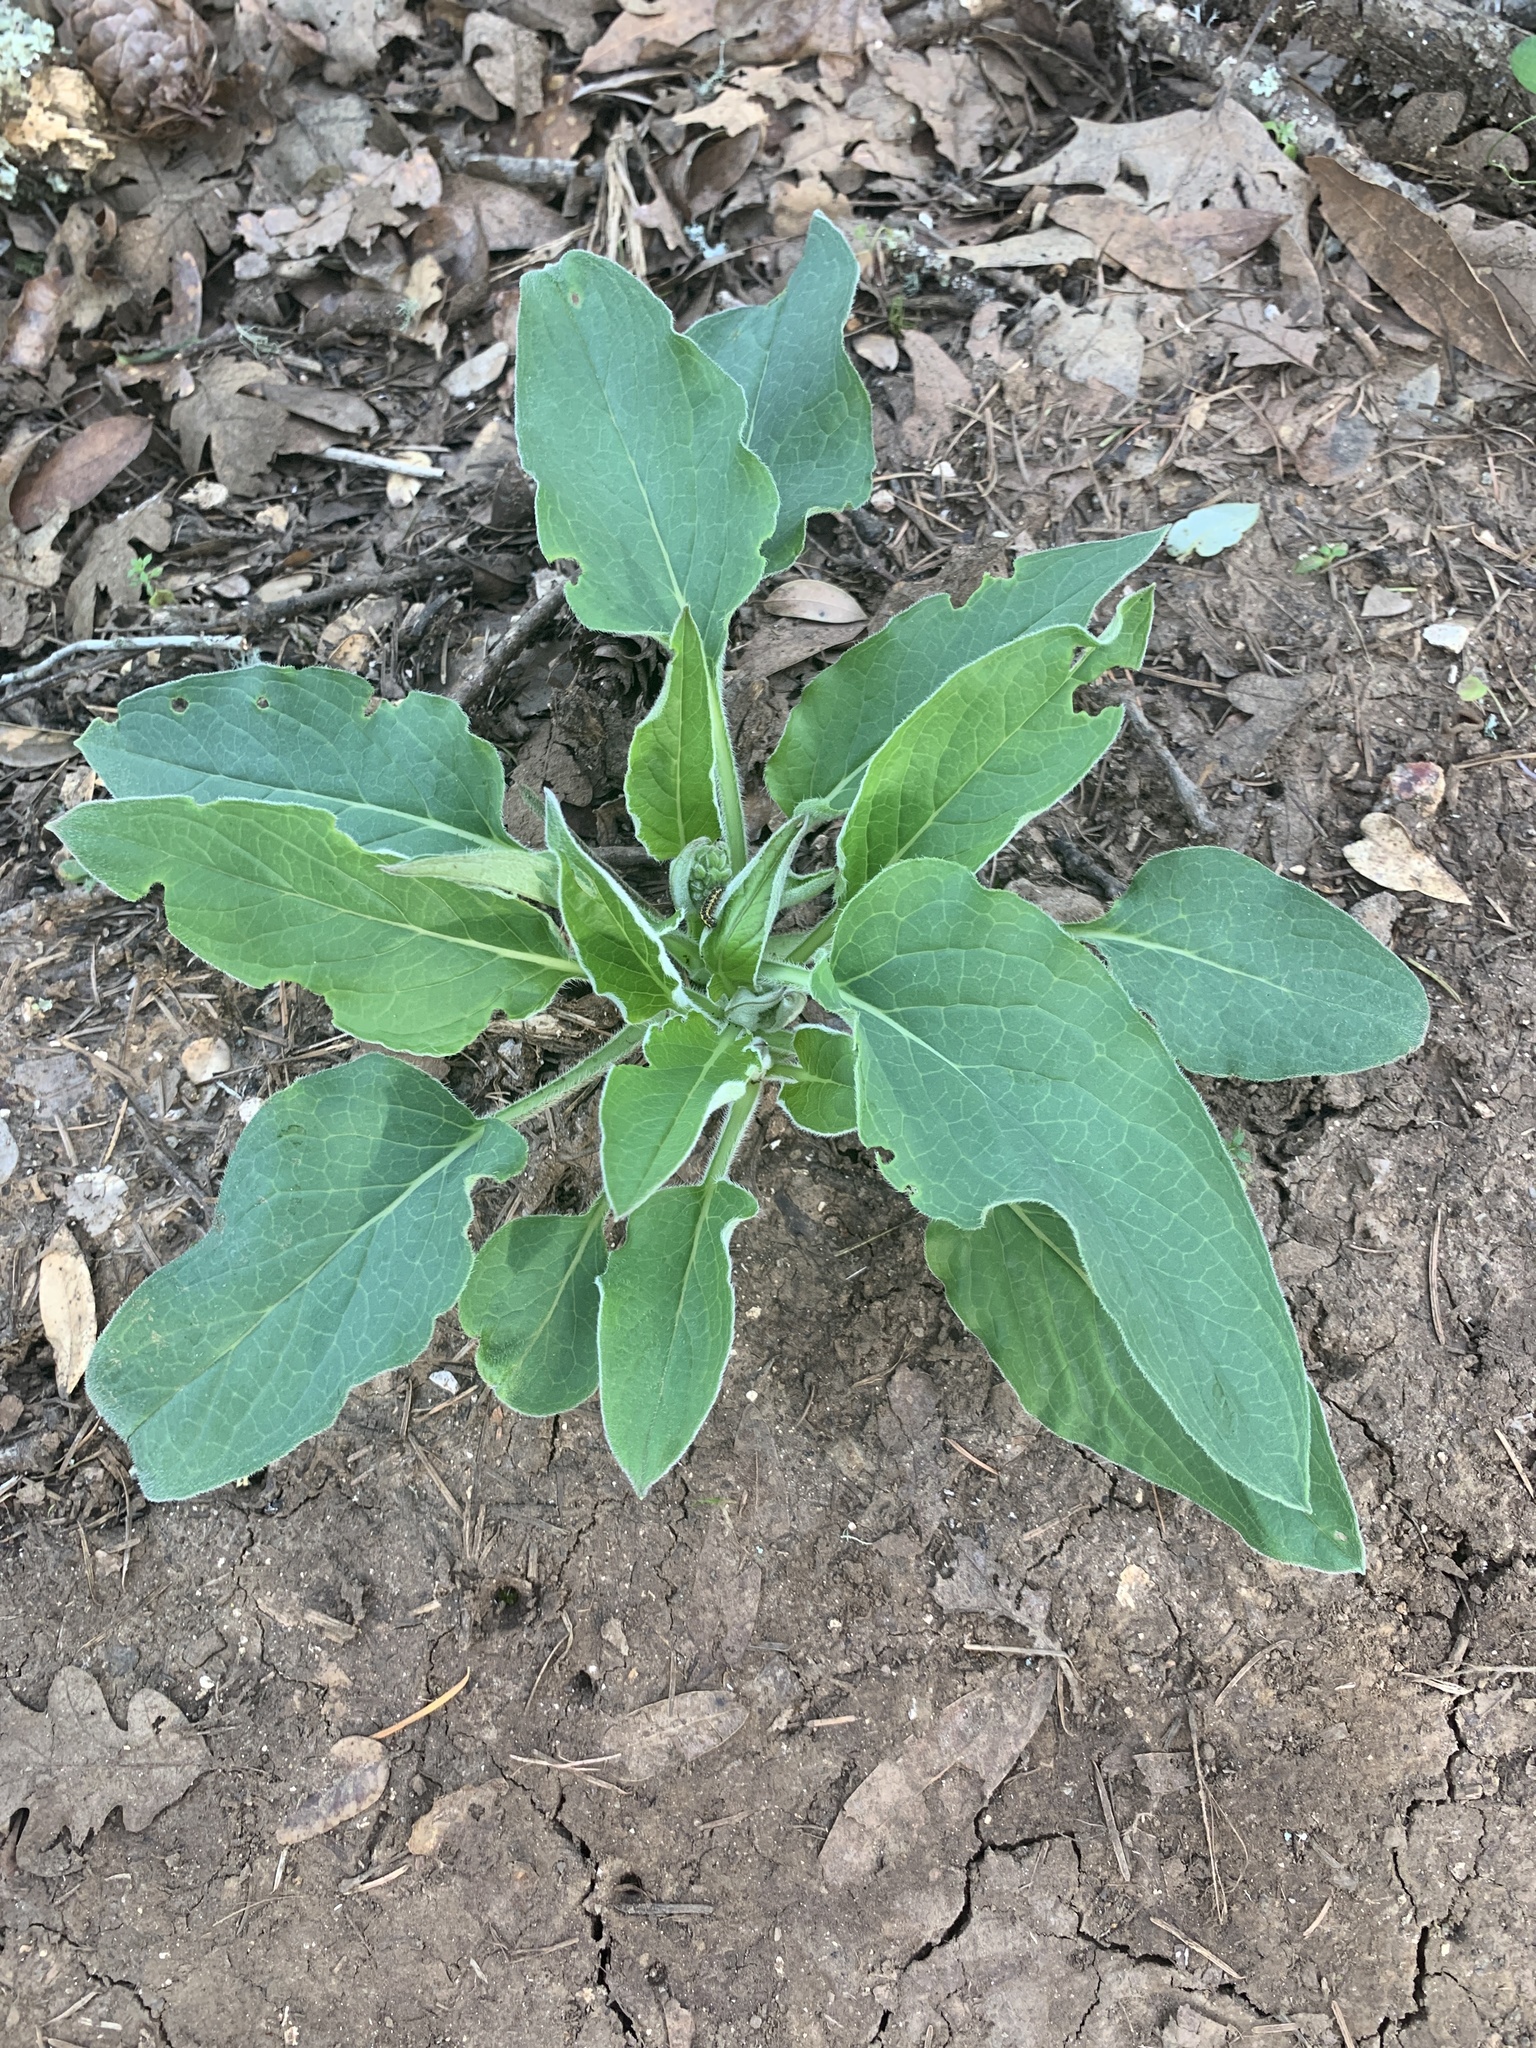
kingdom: Animalia
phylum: Arthropoda
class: Insecta
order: Lepidoptera
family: Erebidae
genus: Gnophaela
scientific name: Gnophaela latipennis
